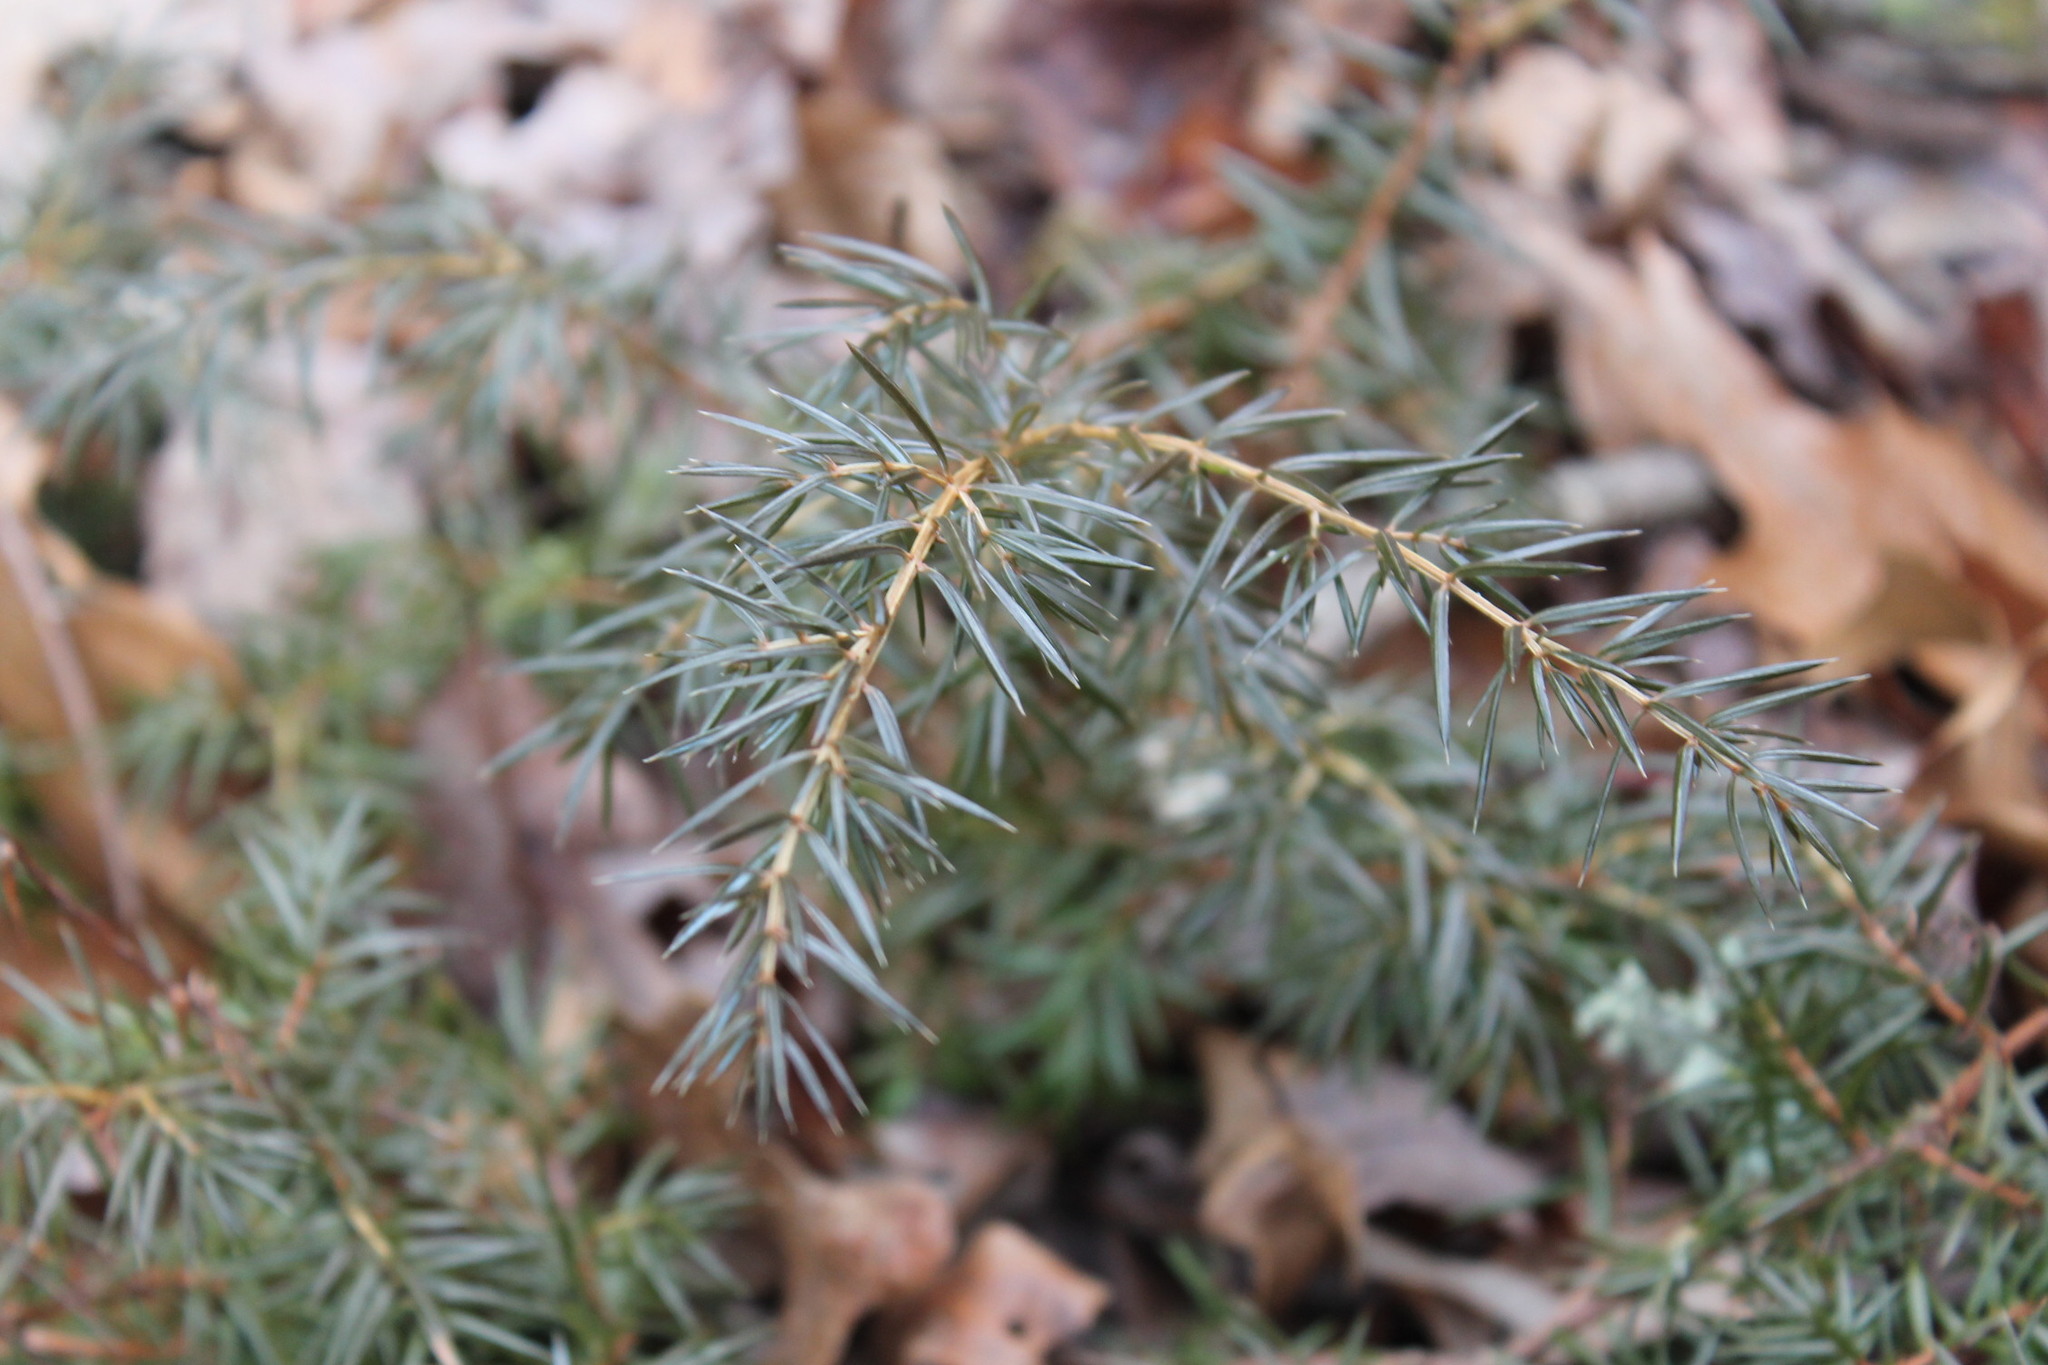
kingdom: Plantae
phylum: Tracheophyta
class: Pinopsida
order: Pinales
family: Cupressaceae
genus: Juniperus
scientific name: Juniperus communis
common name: Common juniper
